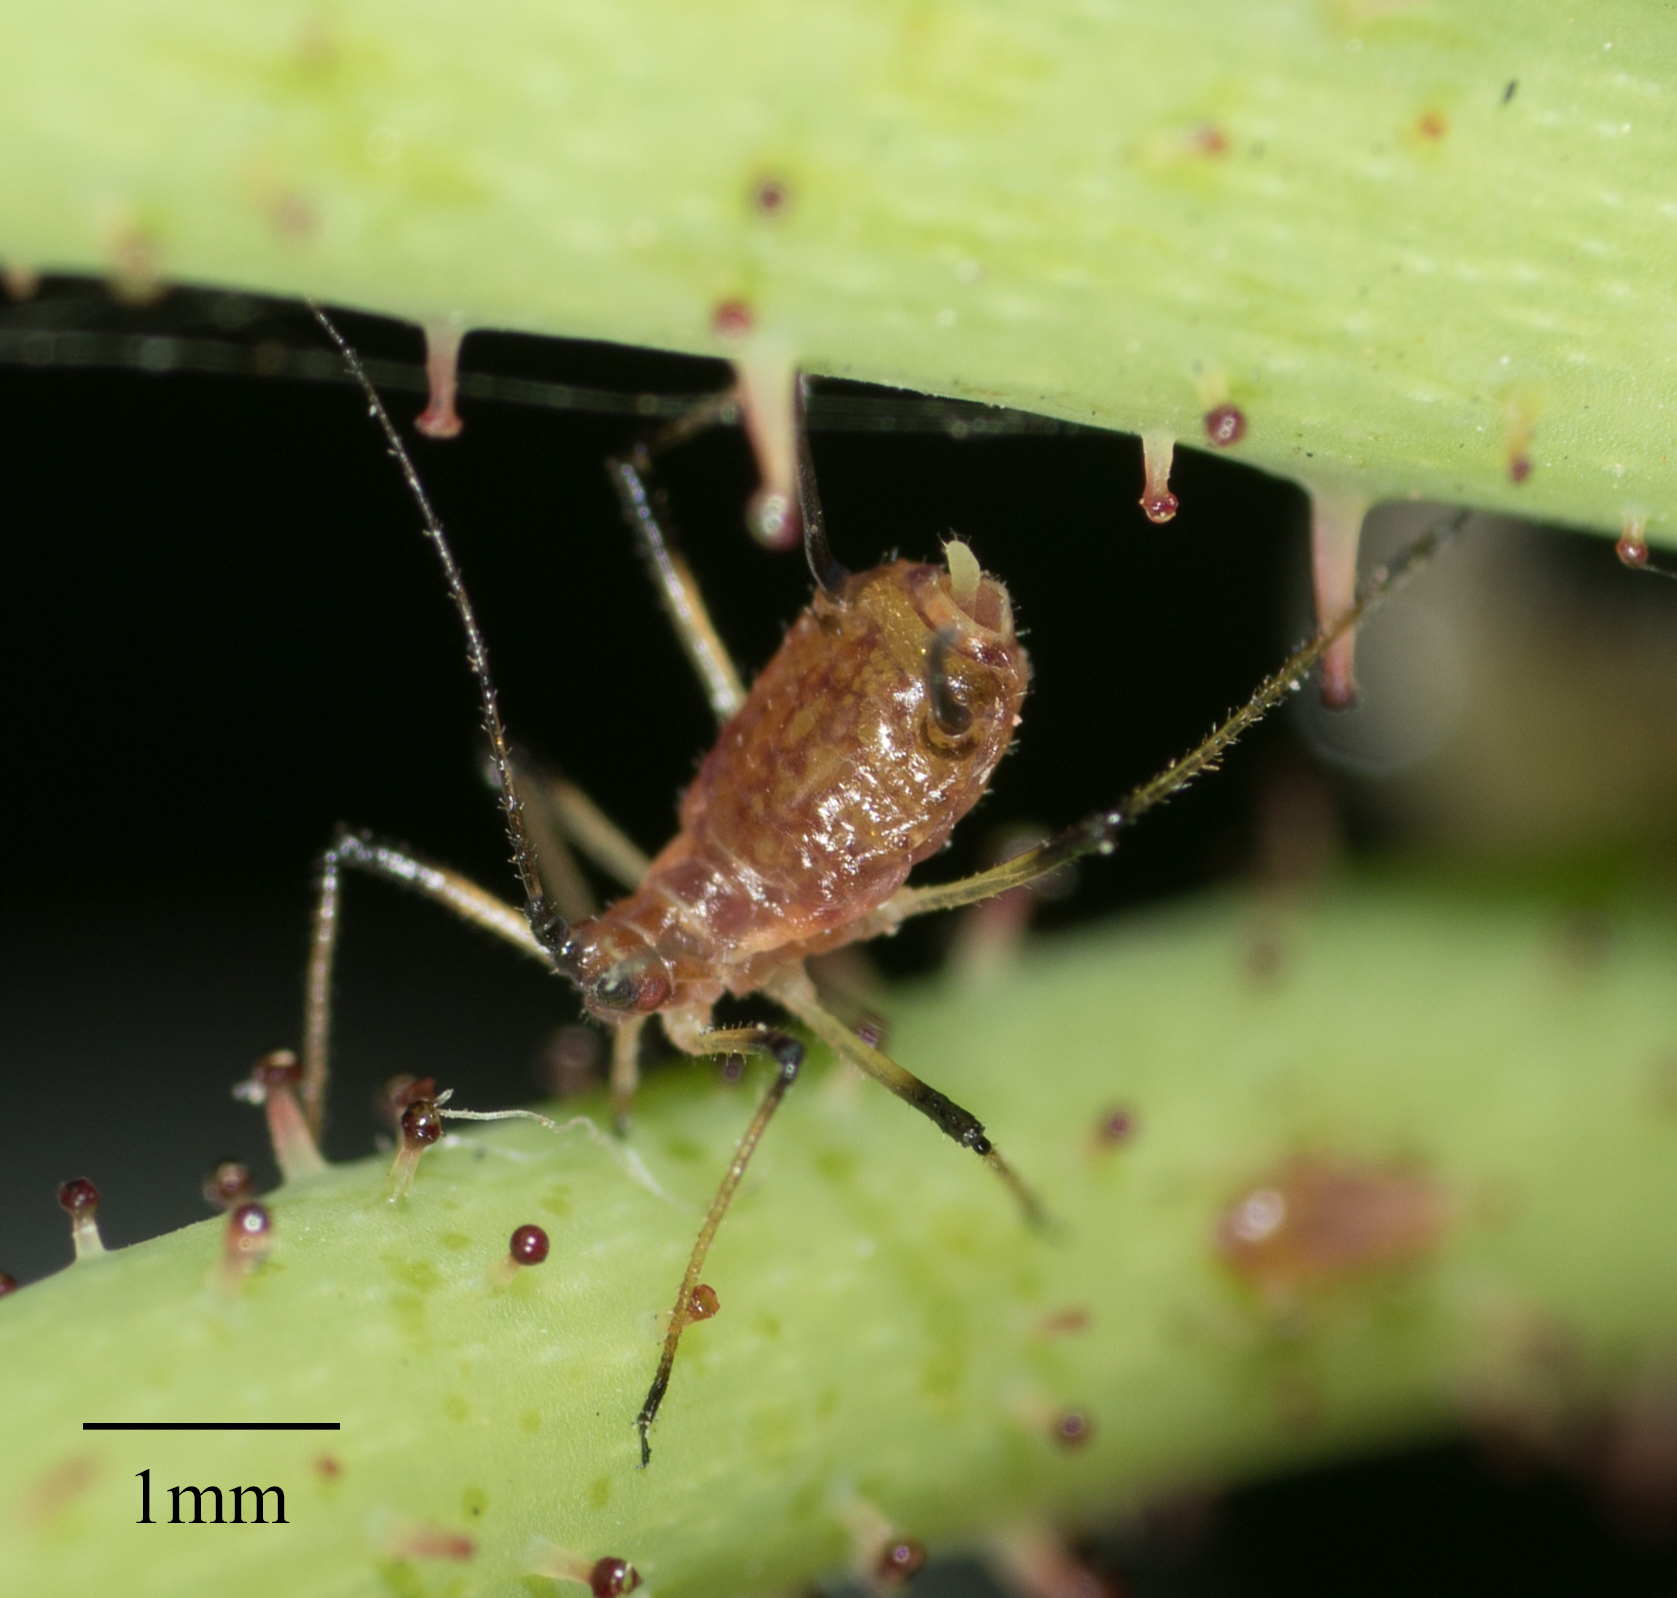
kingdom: Animalia
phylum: Arthropoda
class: Insecta
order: Hemiptera
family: Aphididae
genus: Macrosiphum
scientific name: Macrosiphum rosae
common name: Rose aphid
